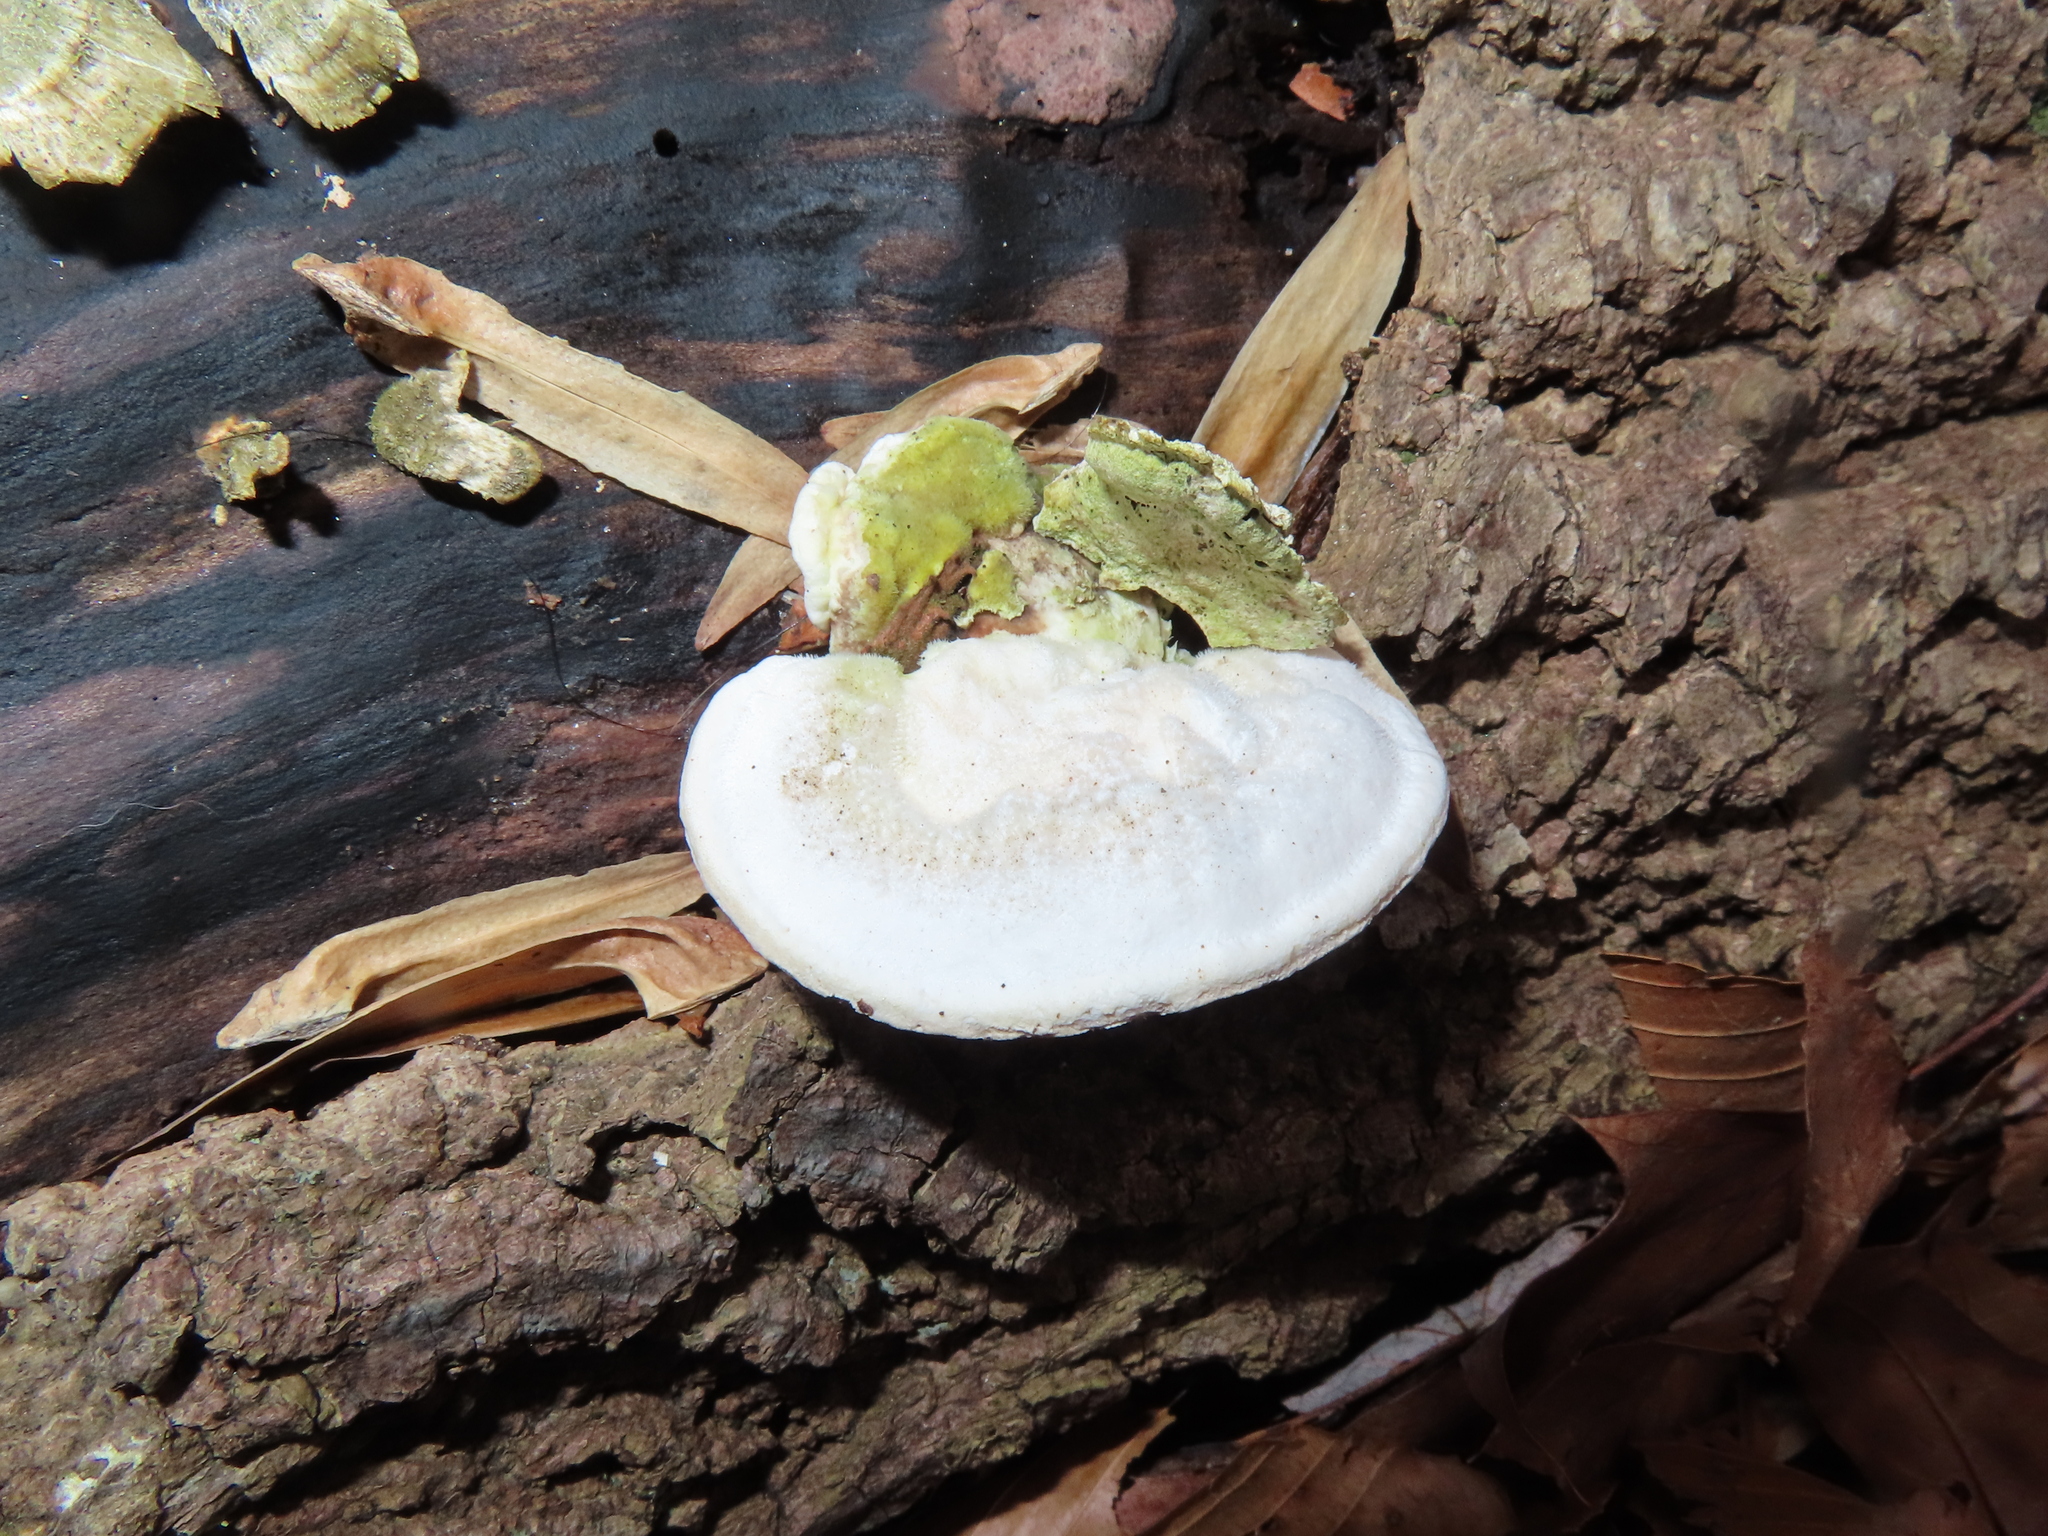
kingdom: Fungi
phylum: Basidiomycota
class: Agaricomycetes
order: Polyporales
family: Polyporaceae
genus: Trametes
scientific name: Trametes gibbosa
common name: Lumpy bracket
